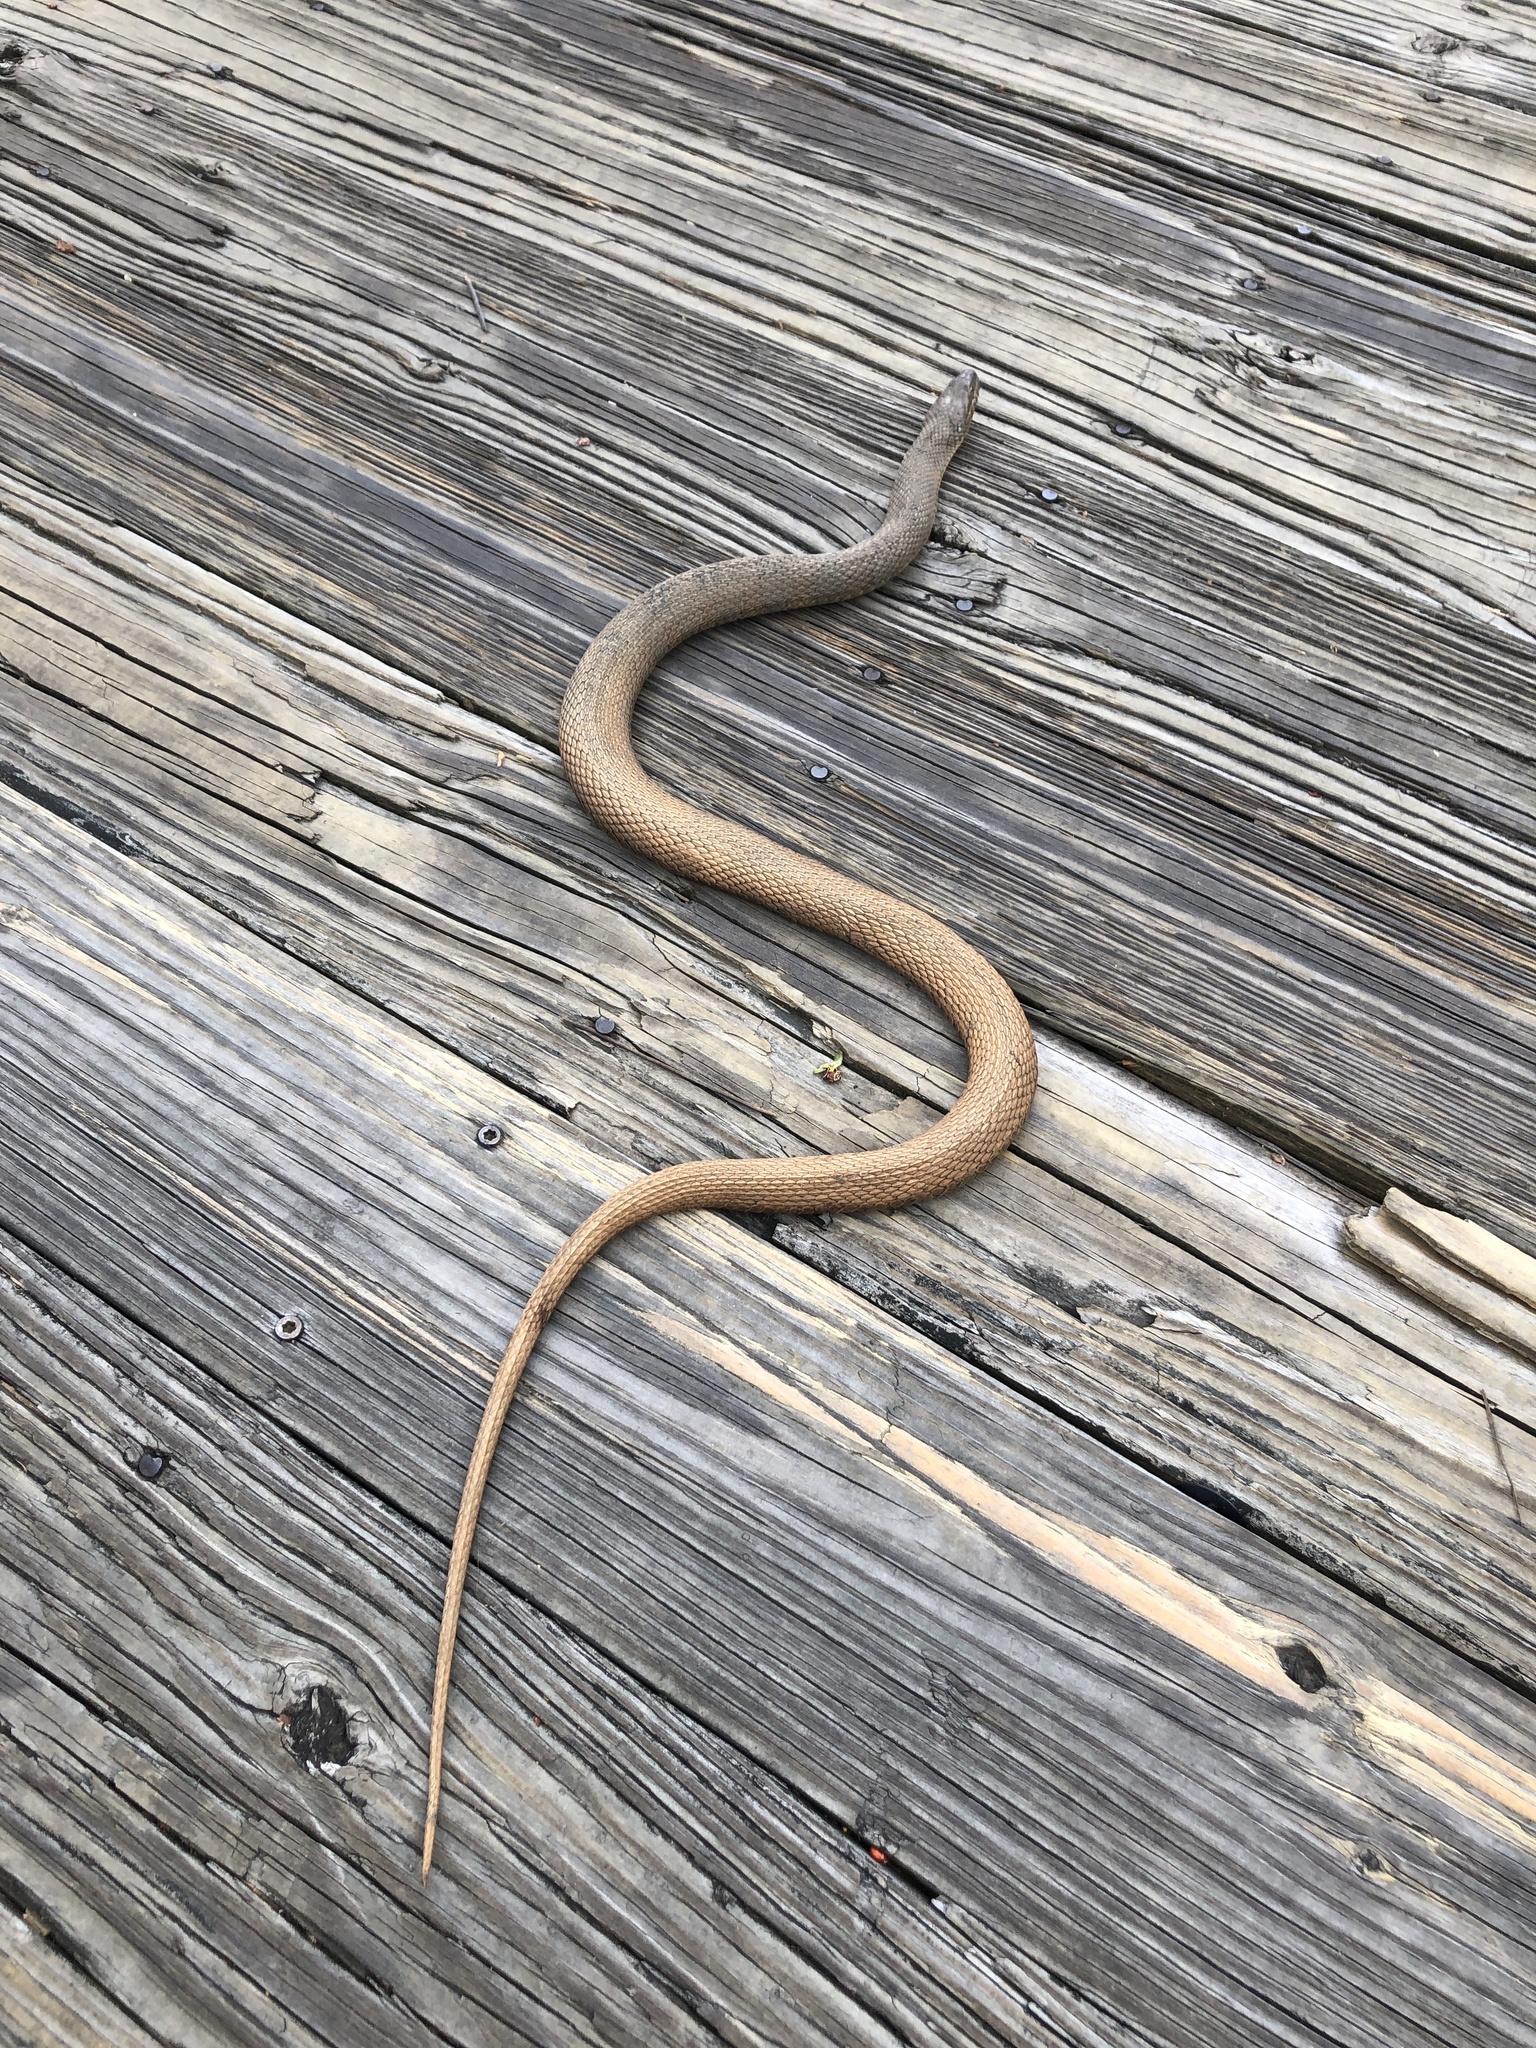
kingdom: Animalia
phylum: Chordata
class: Squamata
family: Colubridae
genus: Nerodia
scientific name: Nerodia sipedon
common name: Northern water snake
